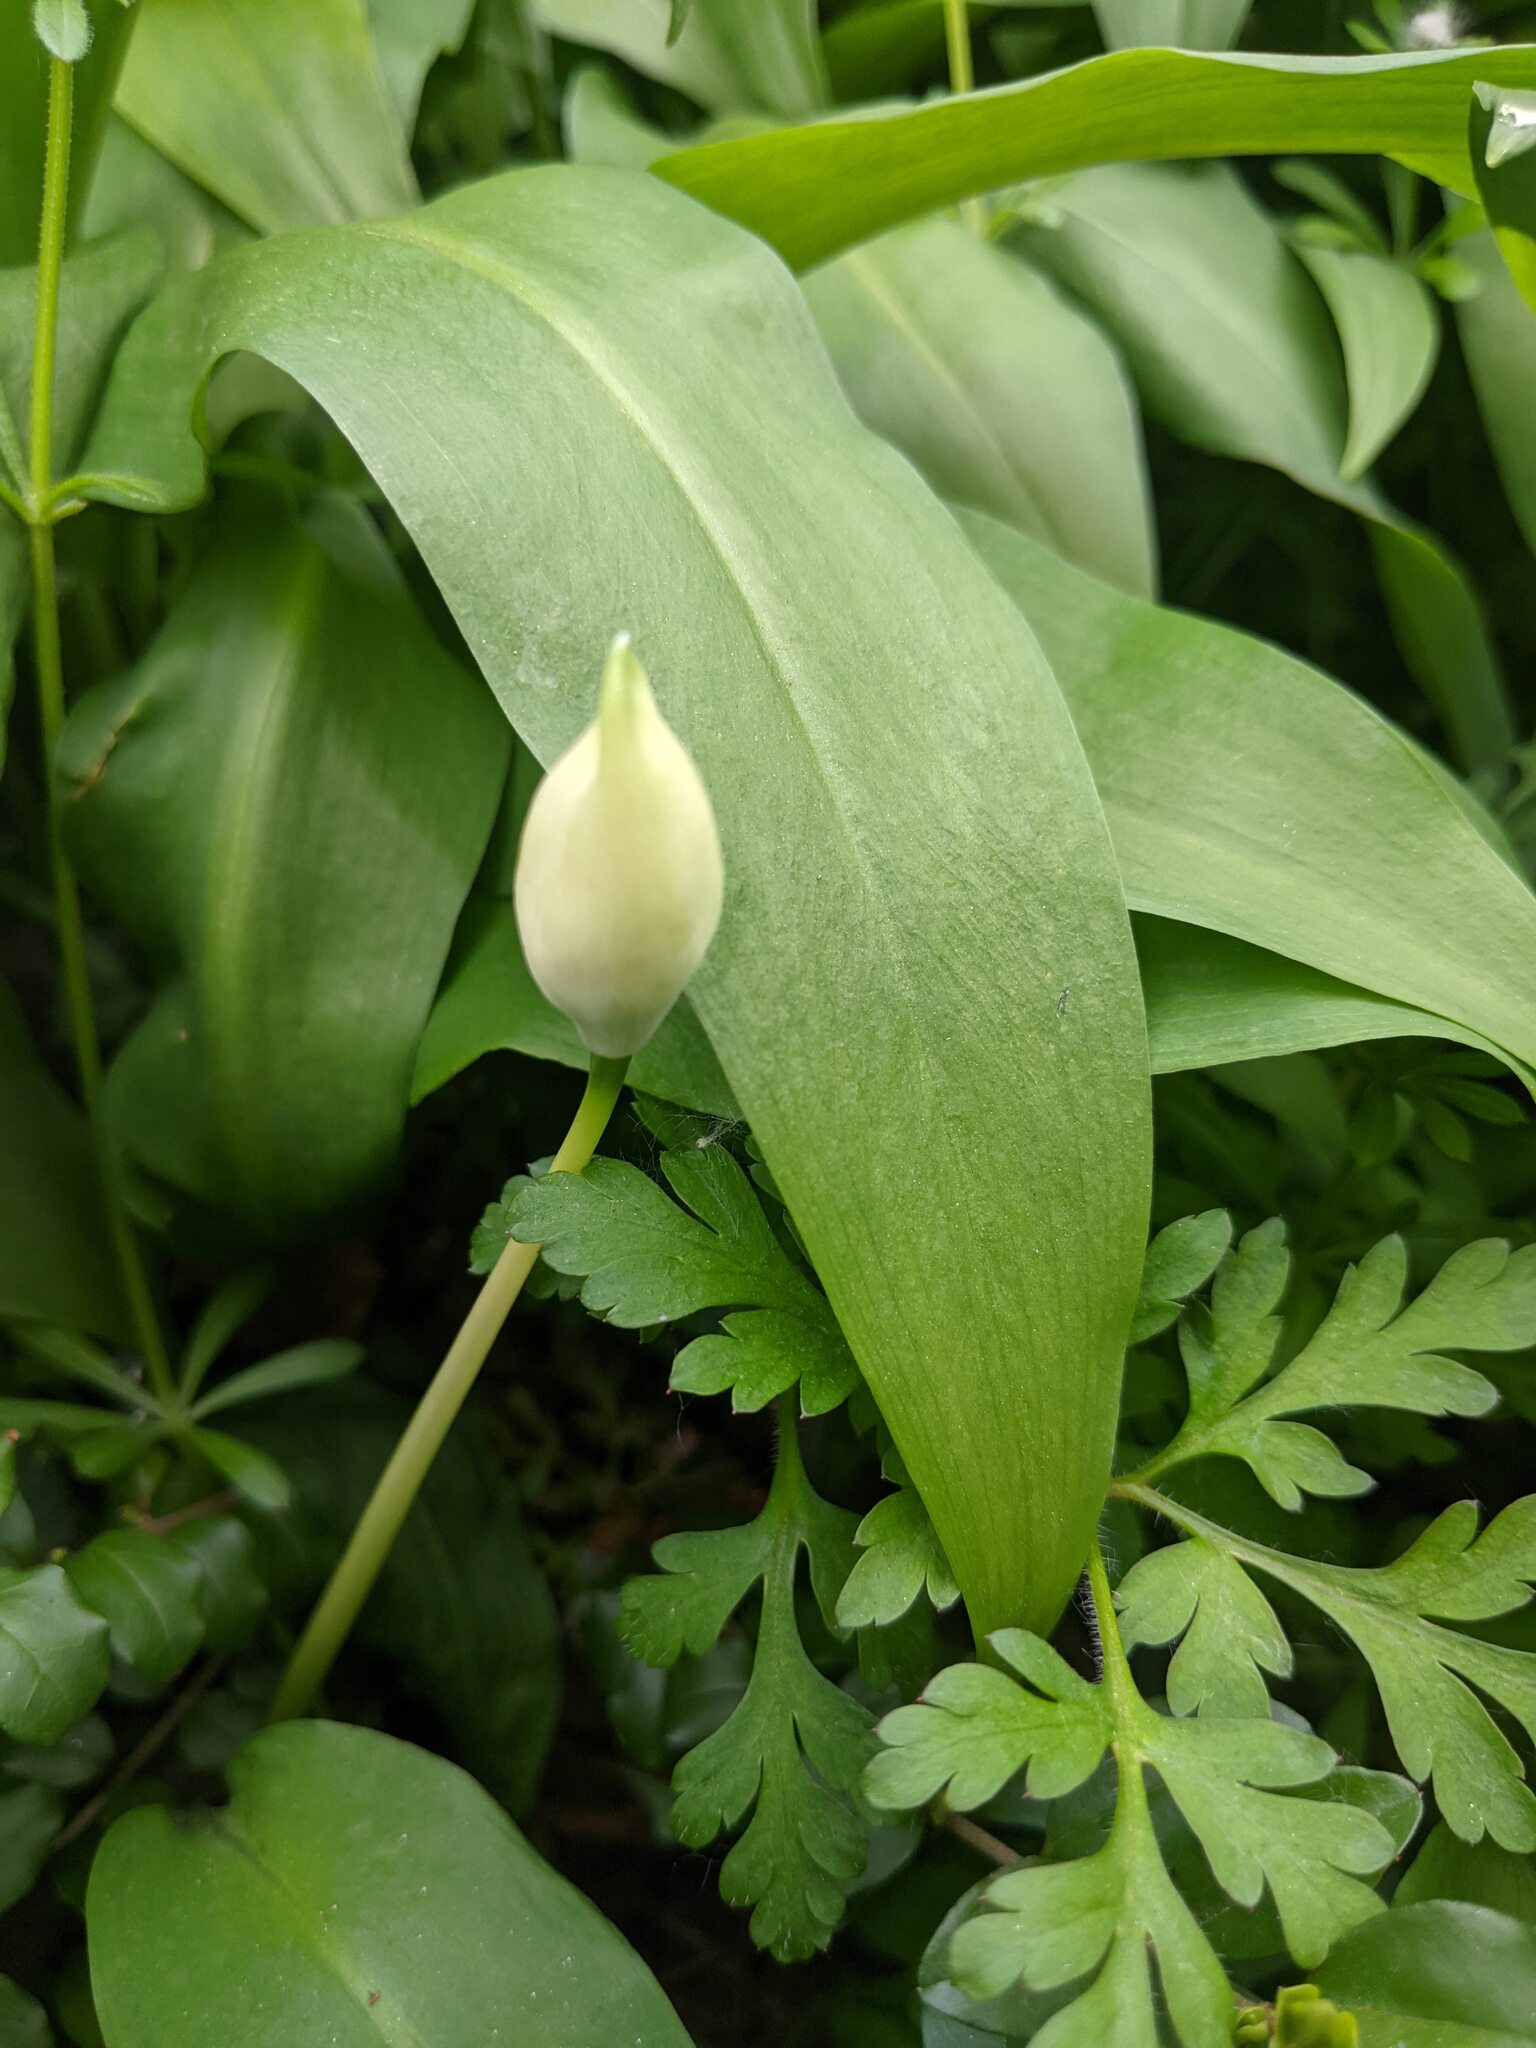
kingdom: Plantae
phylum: Tracheophyta
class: Liliopsida
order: Asparagales
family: Amaryllidaceae
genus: Allium
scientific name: Allium ursinum
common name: Ramsons
